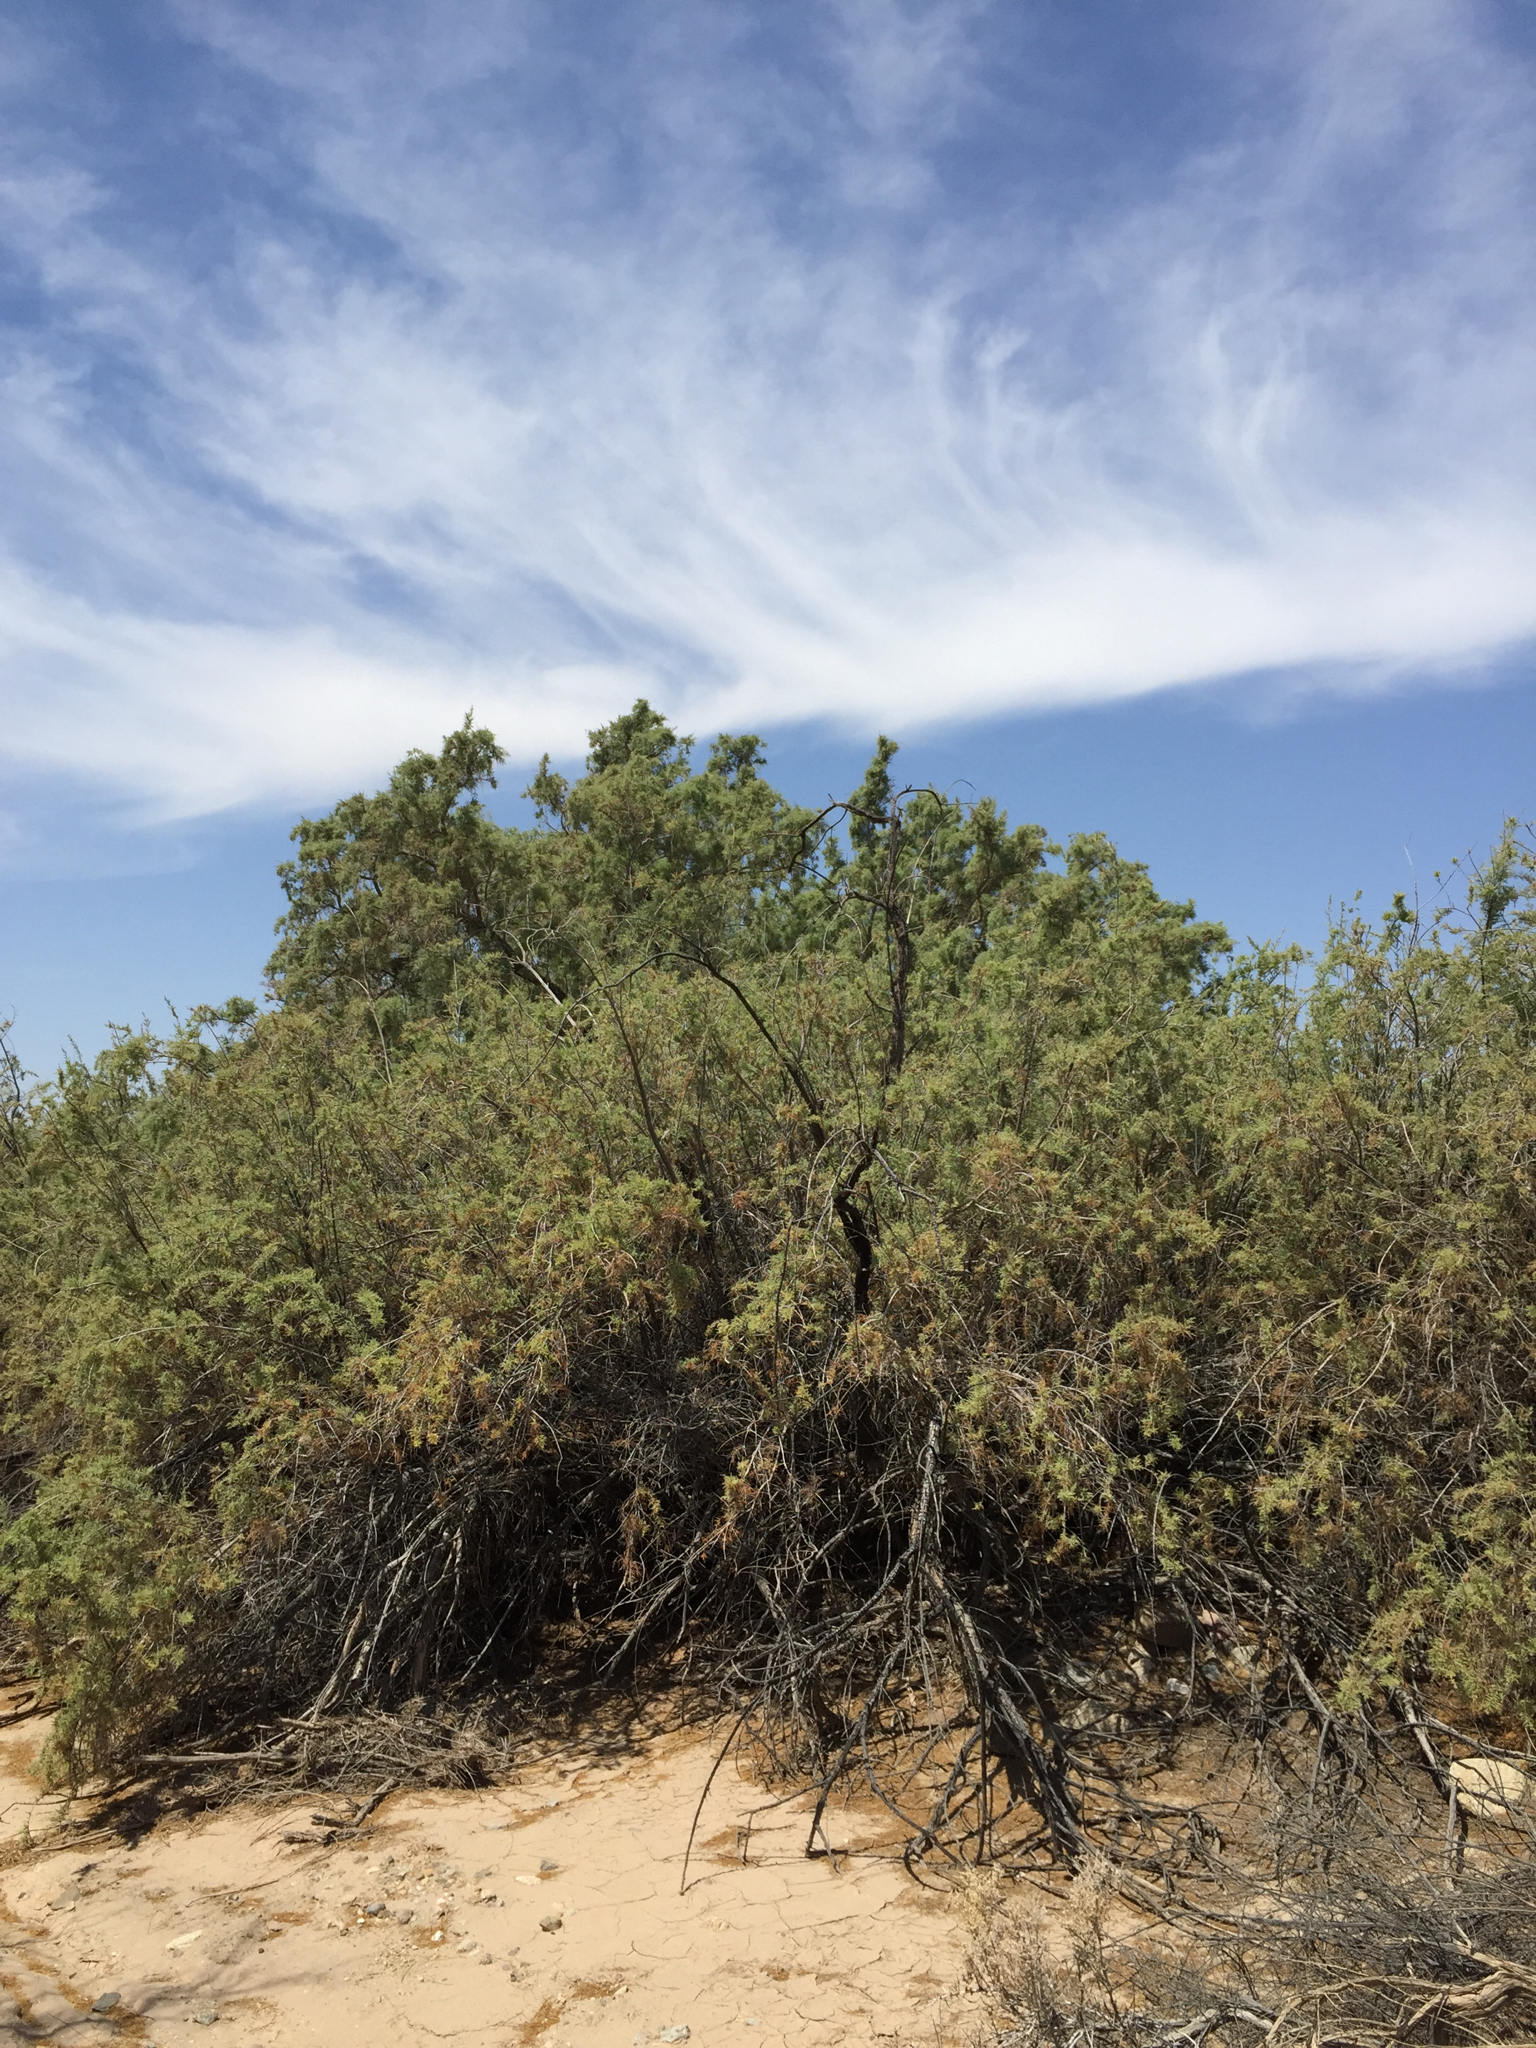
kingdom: Plantae
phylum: Tracheophyta
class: Magnoliopsida
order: Caryophyllales
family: Tamaricaceae
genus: Tamarix
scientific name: Tamarix ramosissima
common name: Pink tamarisk
